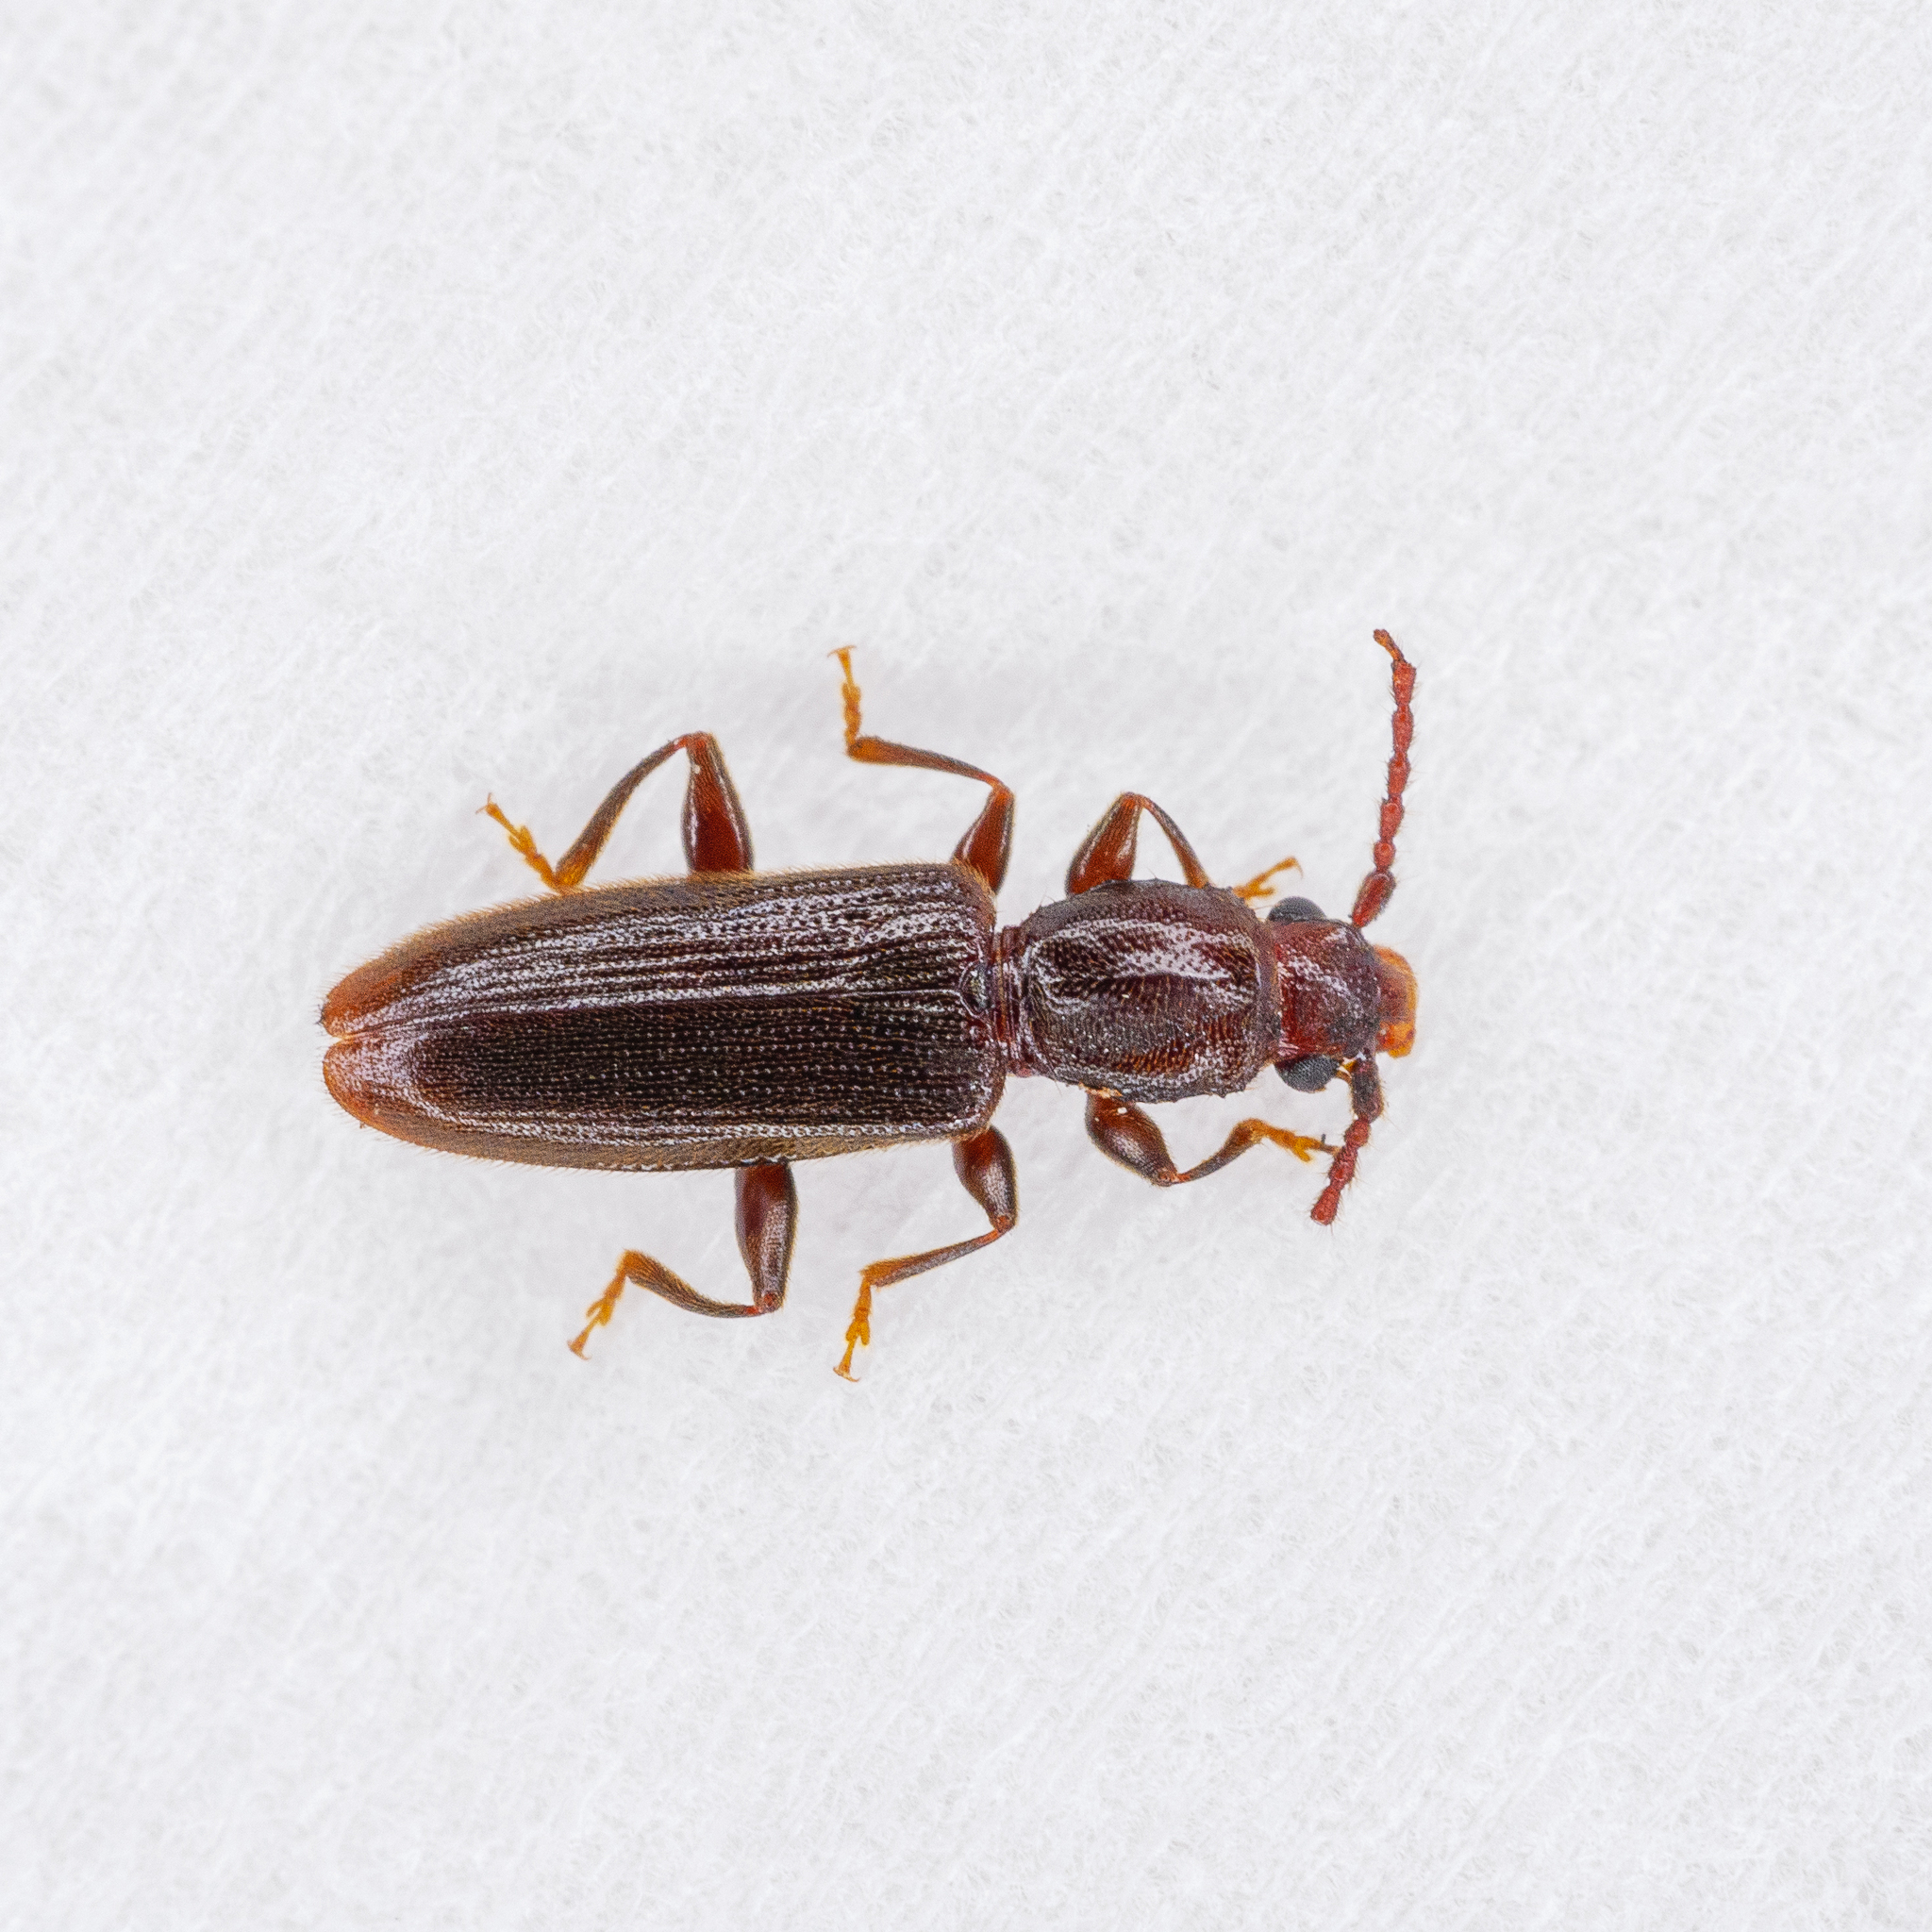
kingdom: Animalia
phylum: Arthropoda
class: Insecta
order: Coleoptera
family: Silvanidae
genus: Cryptamorpha
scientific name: Cryptamorpha brevicornis
